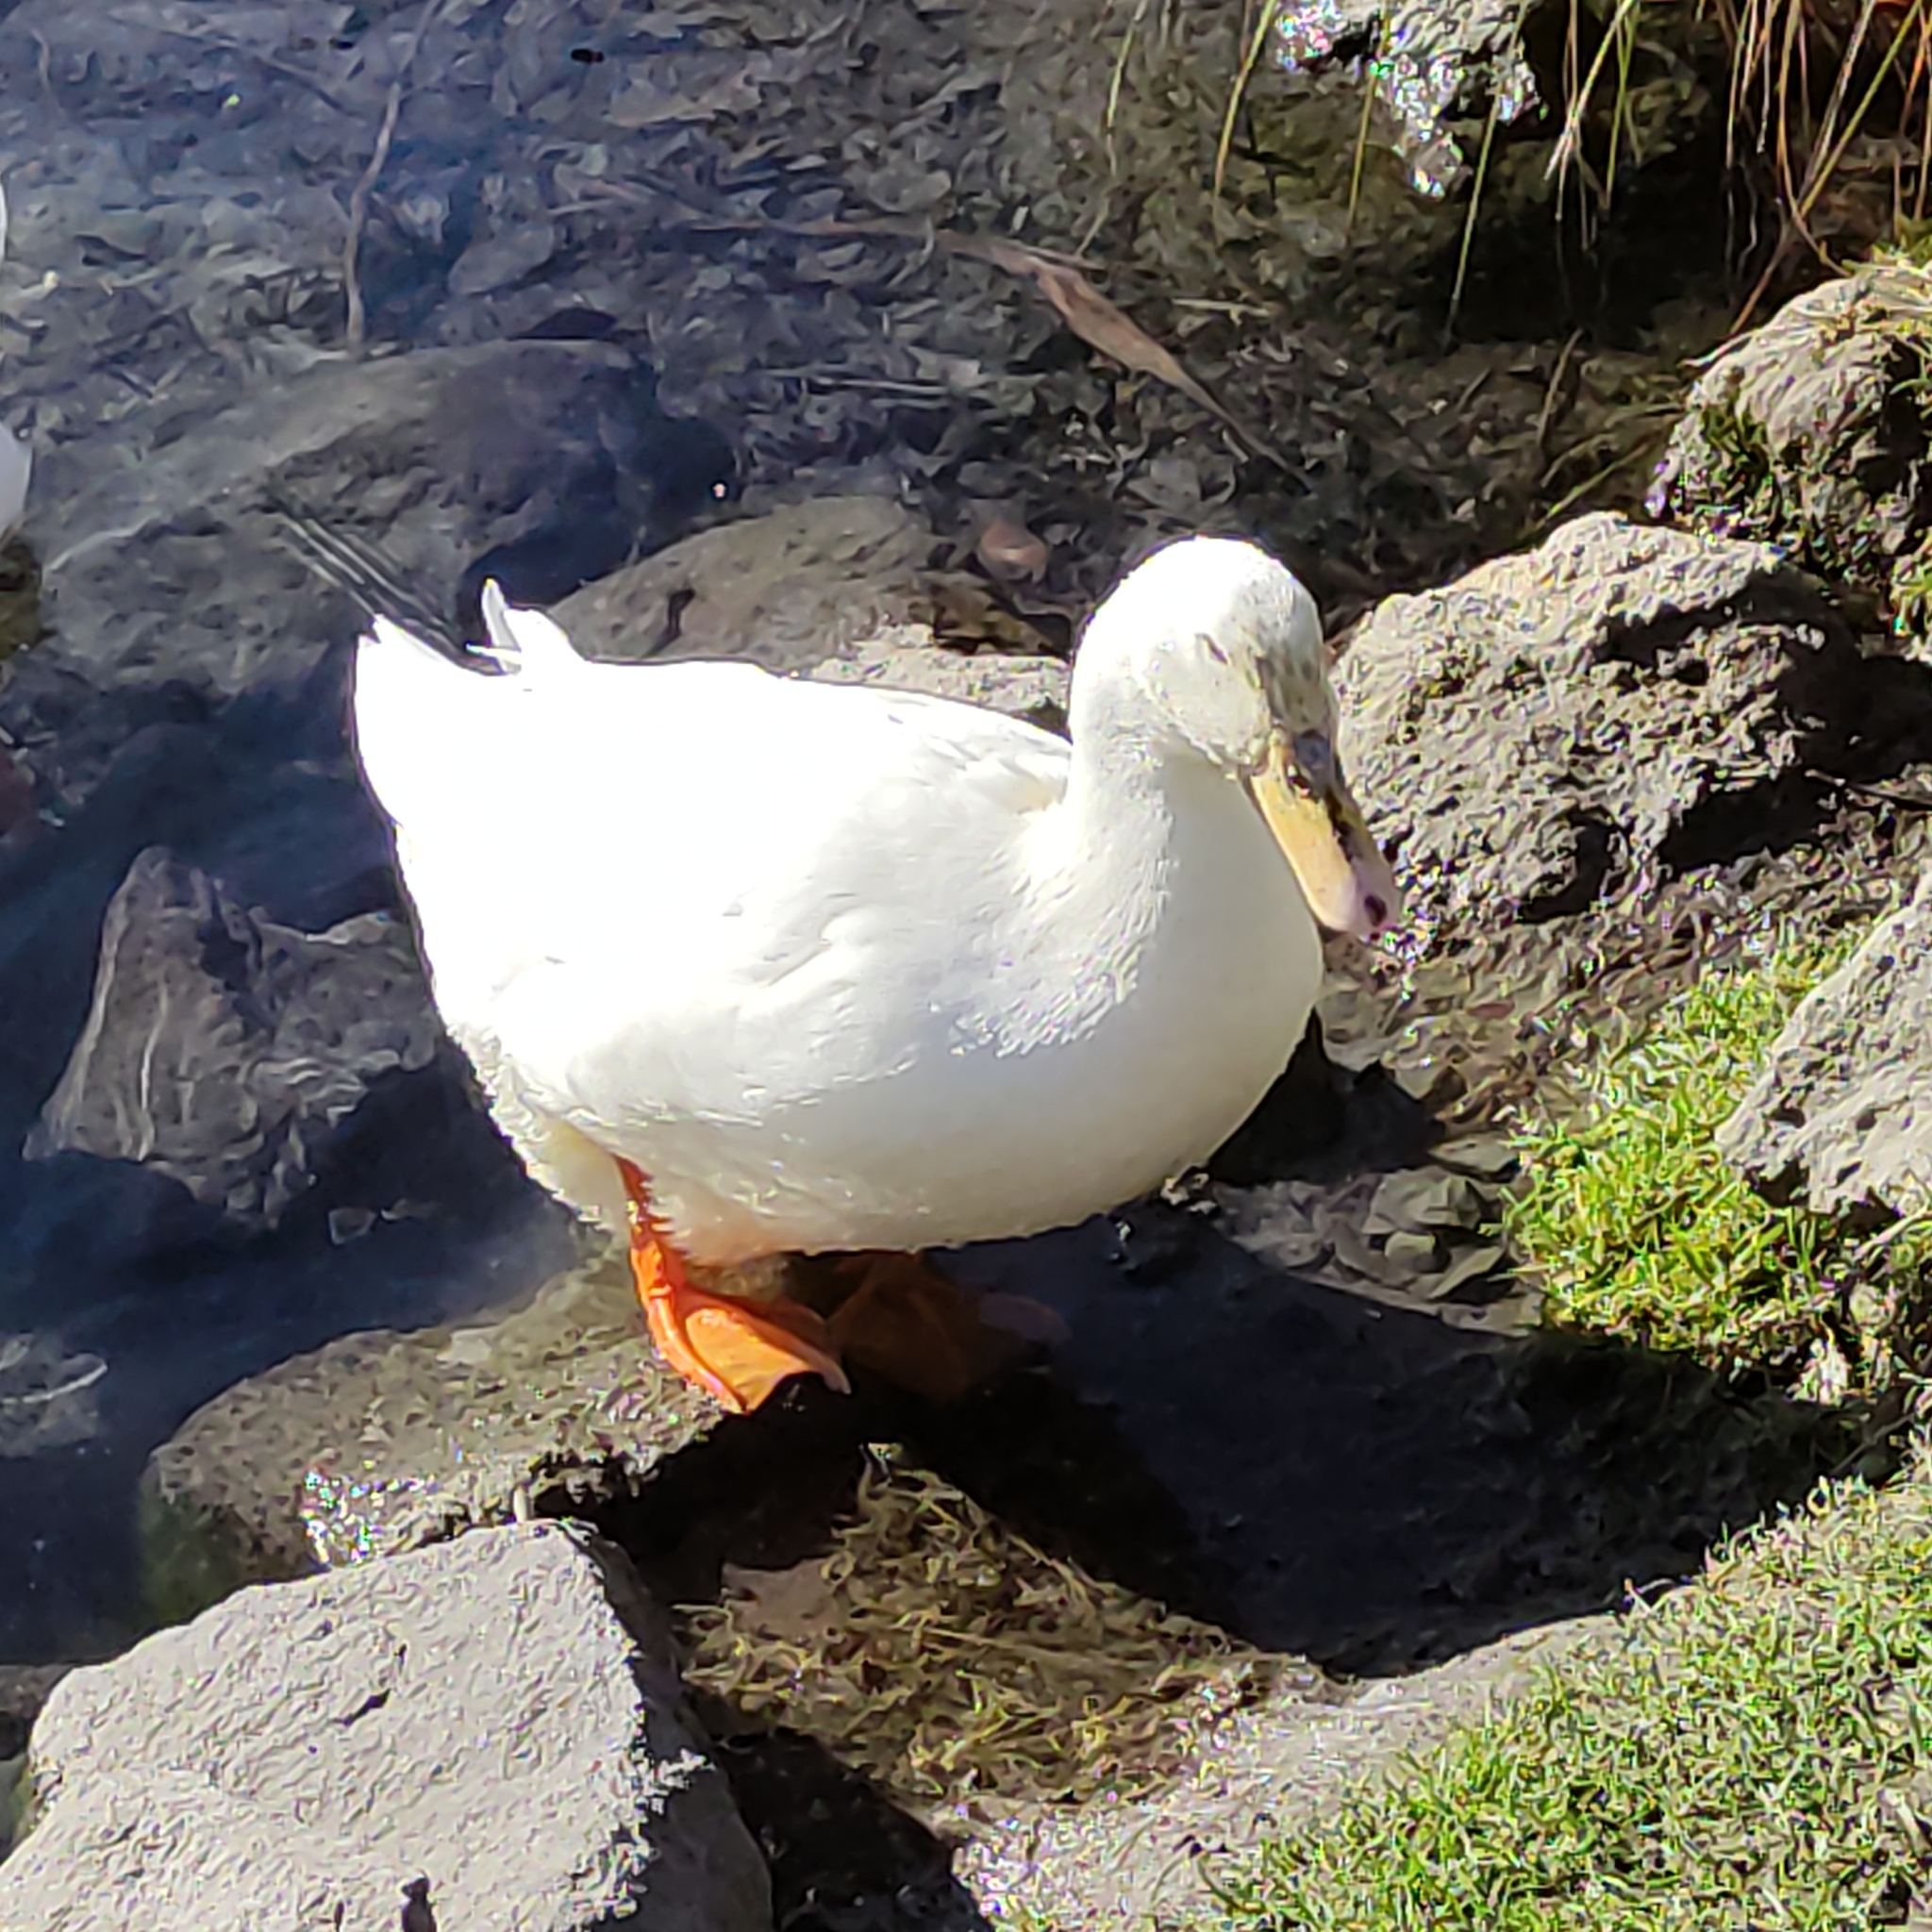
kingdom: Animalia
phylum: Chordata
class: Aves
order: Anseriformes
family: Anatidae
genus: Anas
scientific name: Anas platyrhynchos
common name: Mallard
